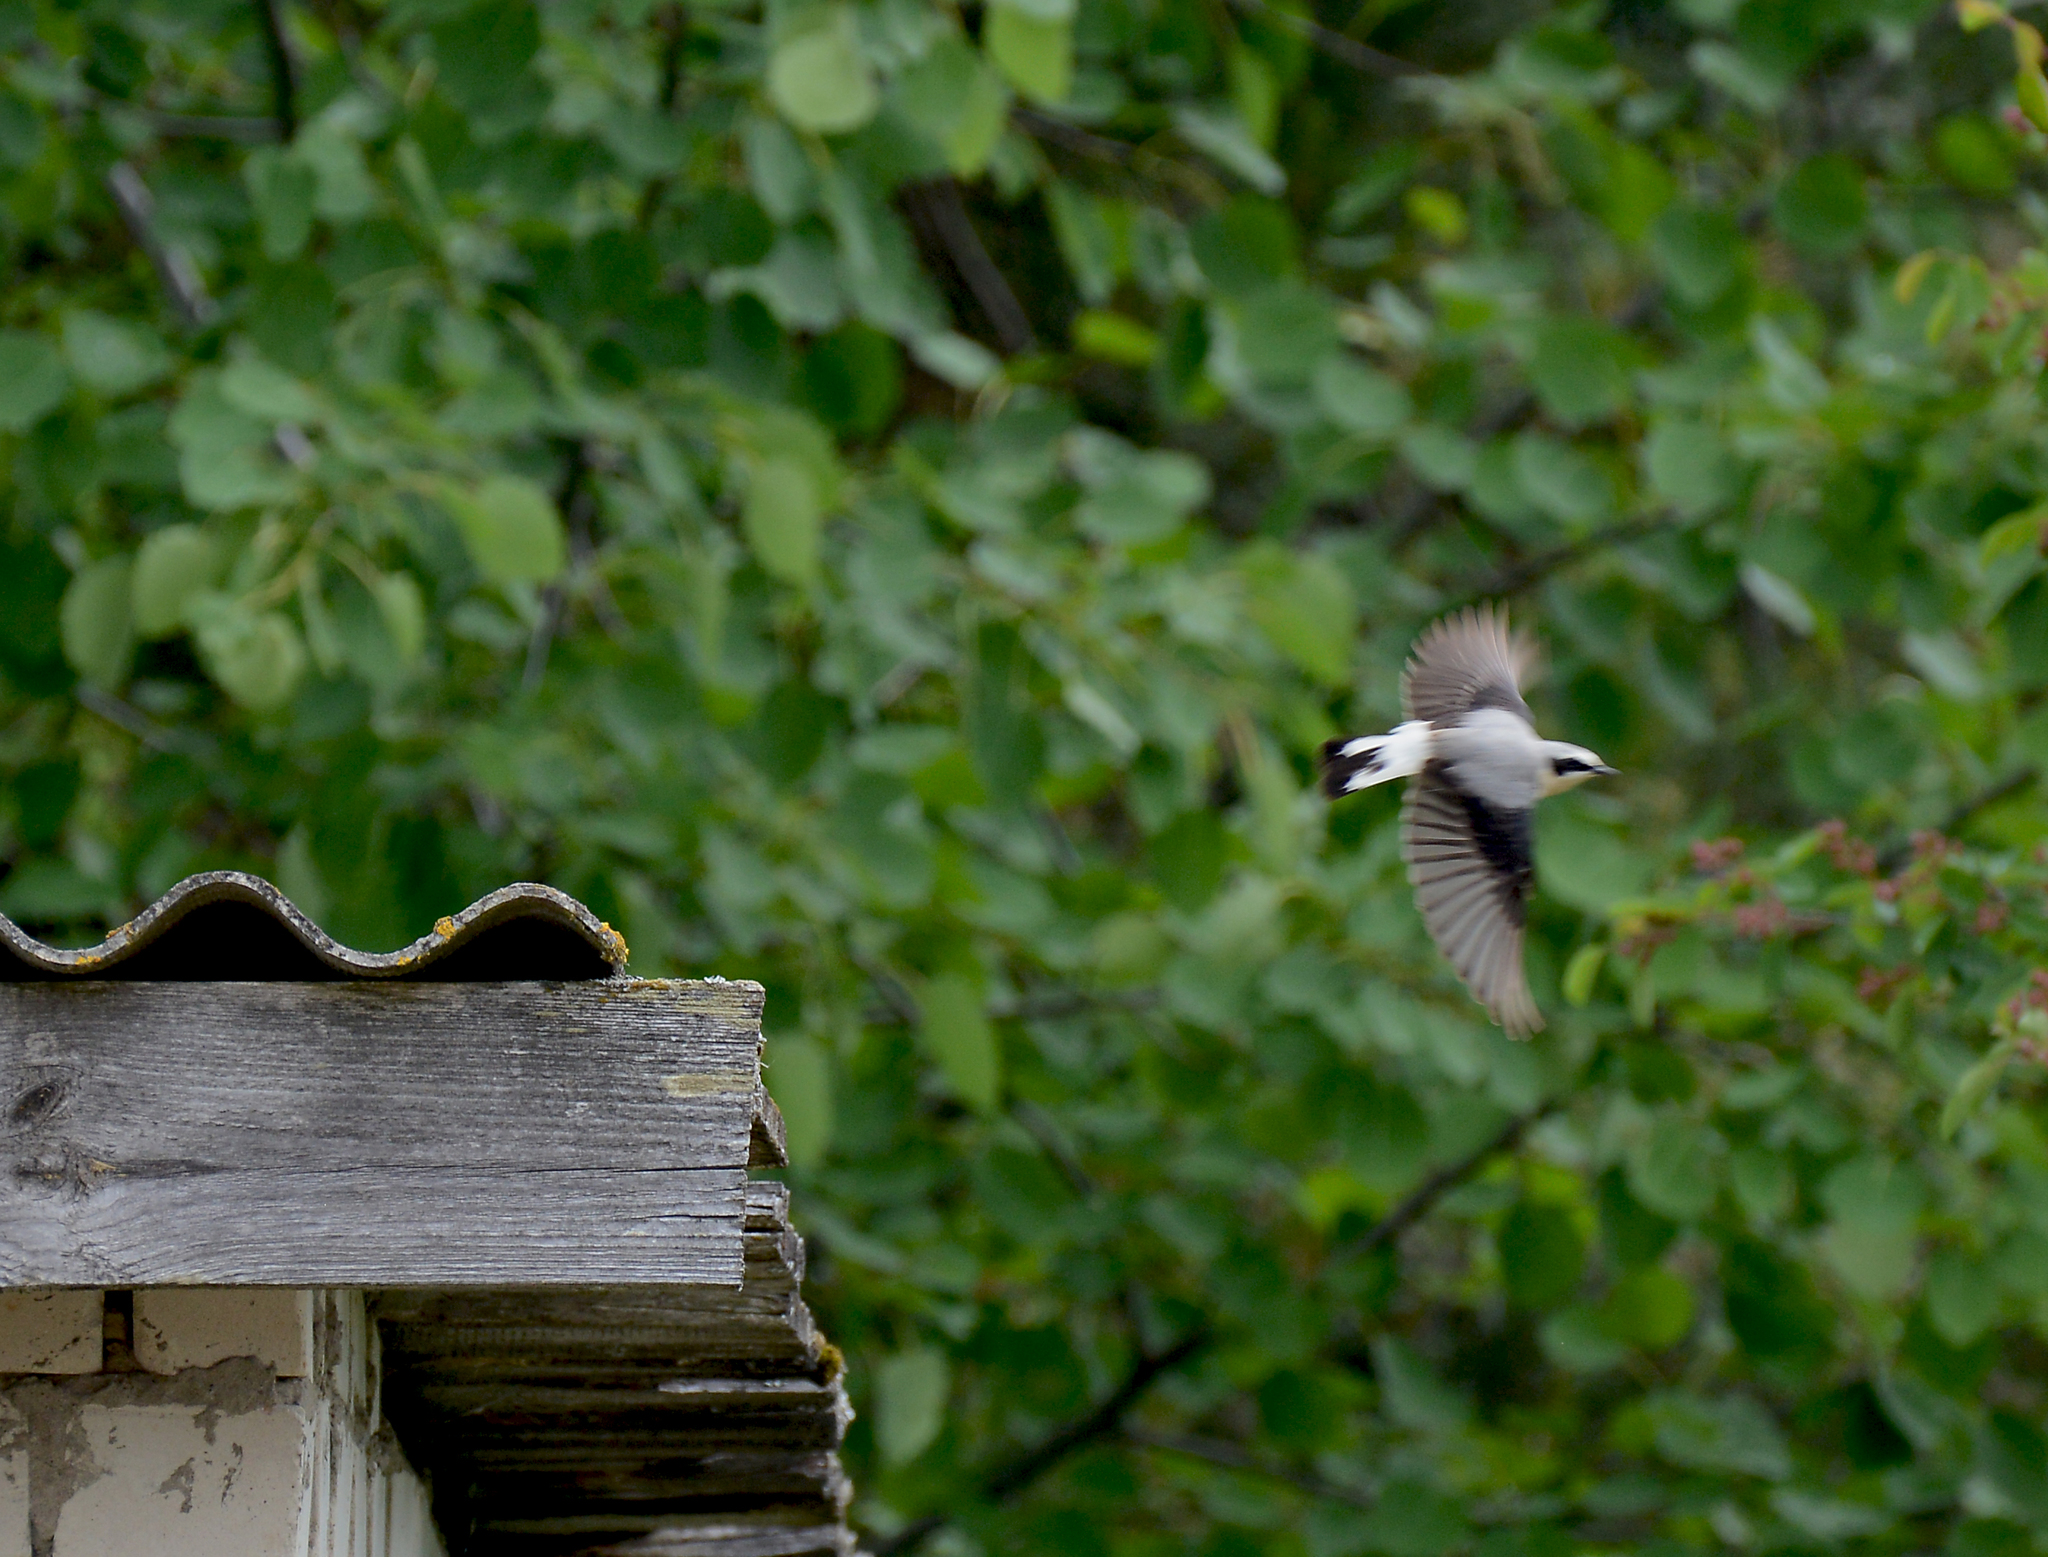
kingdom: Animalia
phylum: Chordata
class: Aves
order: Passeriformes
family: Muscicapidae
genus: Oenanthe
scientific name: Oenanthe oenanthe
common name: Northern wheatear
